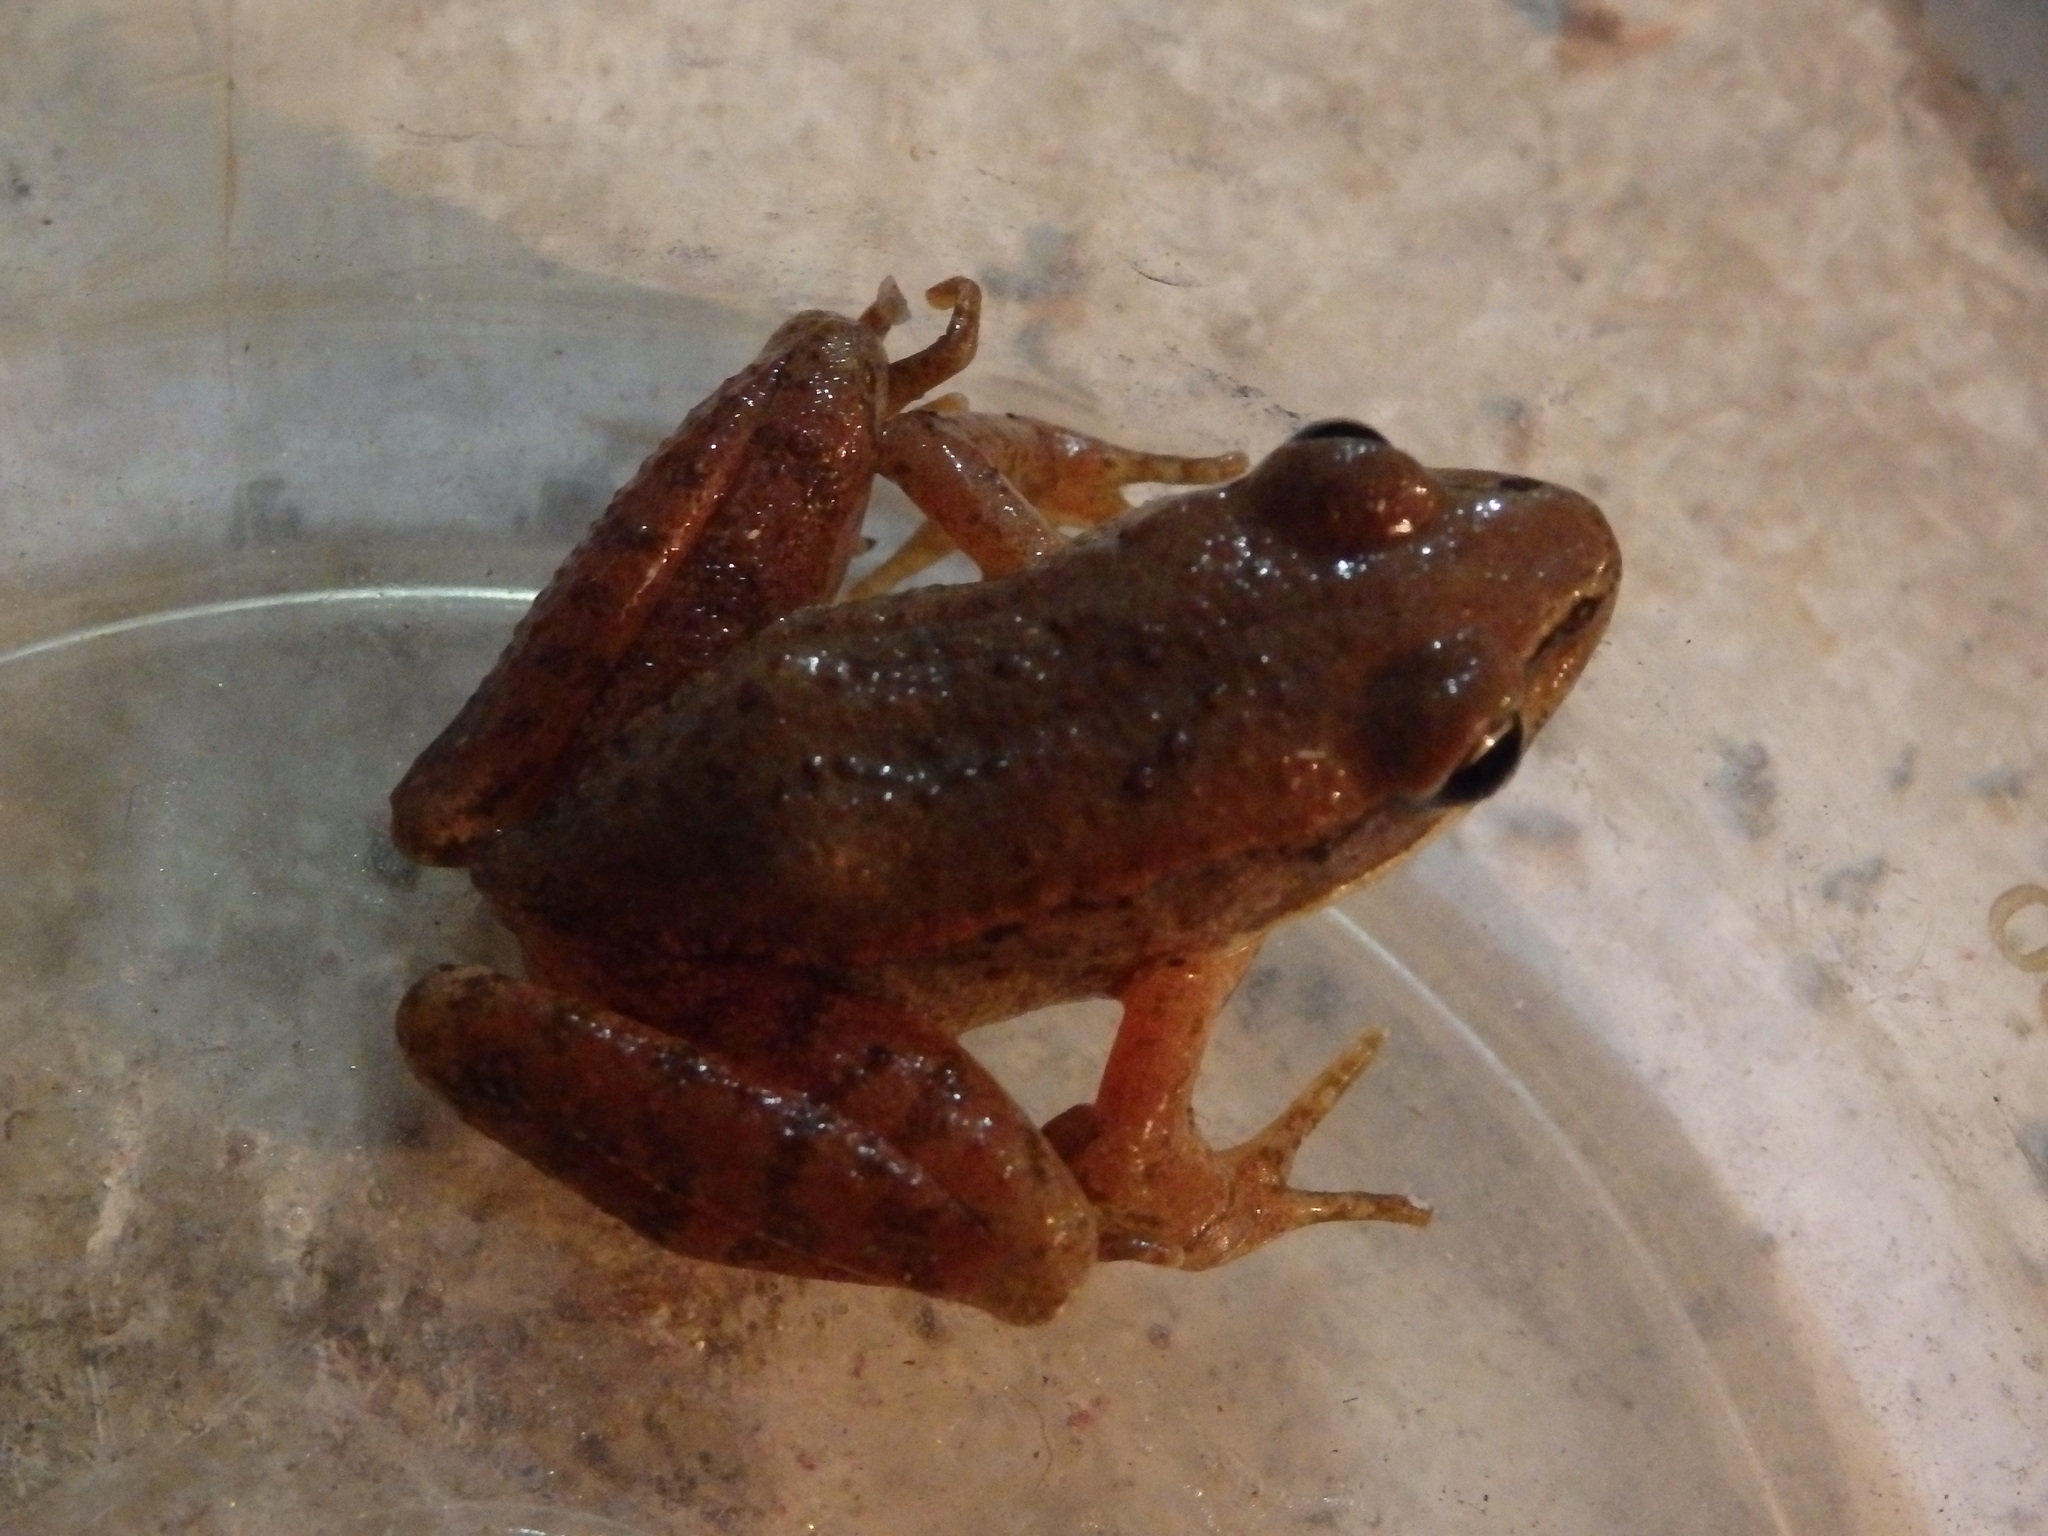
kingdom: Animalia
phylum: Chordata
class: Amphibia
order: Anura
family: Ranidae
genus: Rana
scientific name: Rana iberica
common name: Iberian frog
